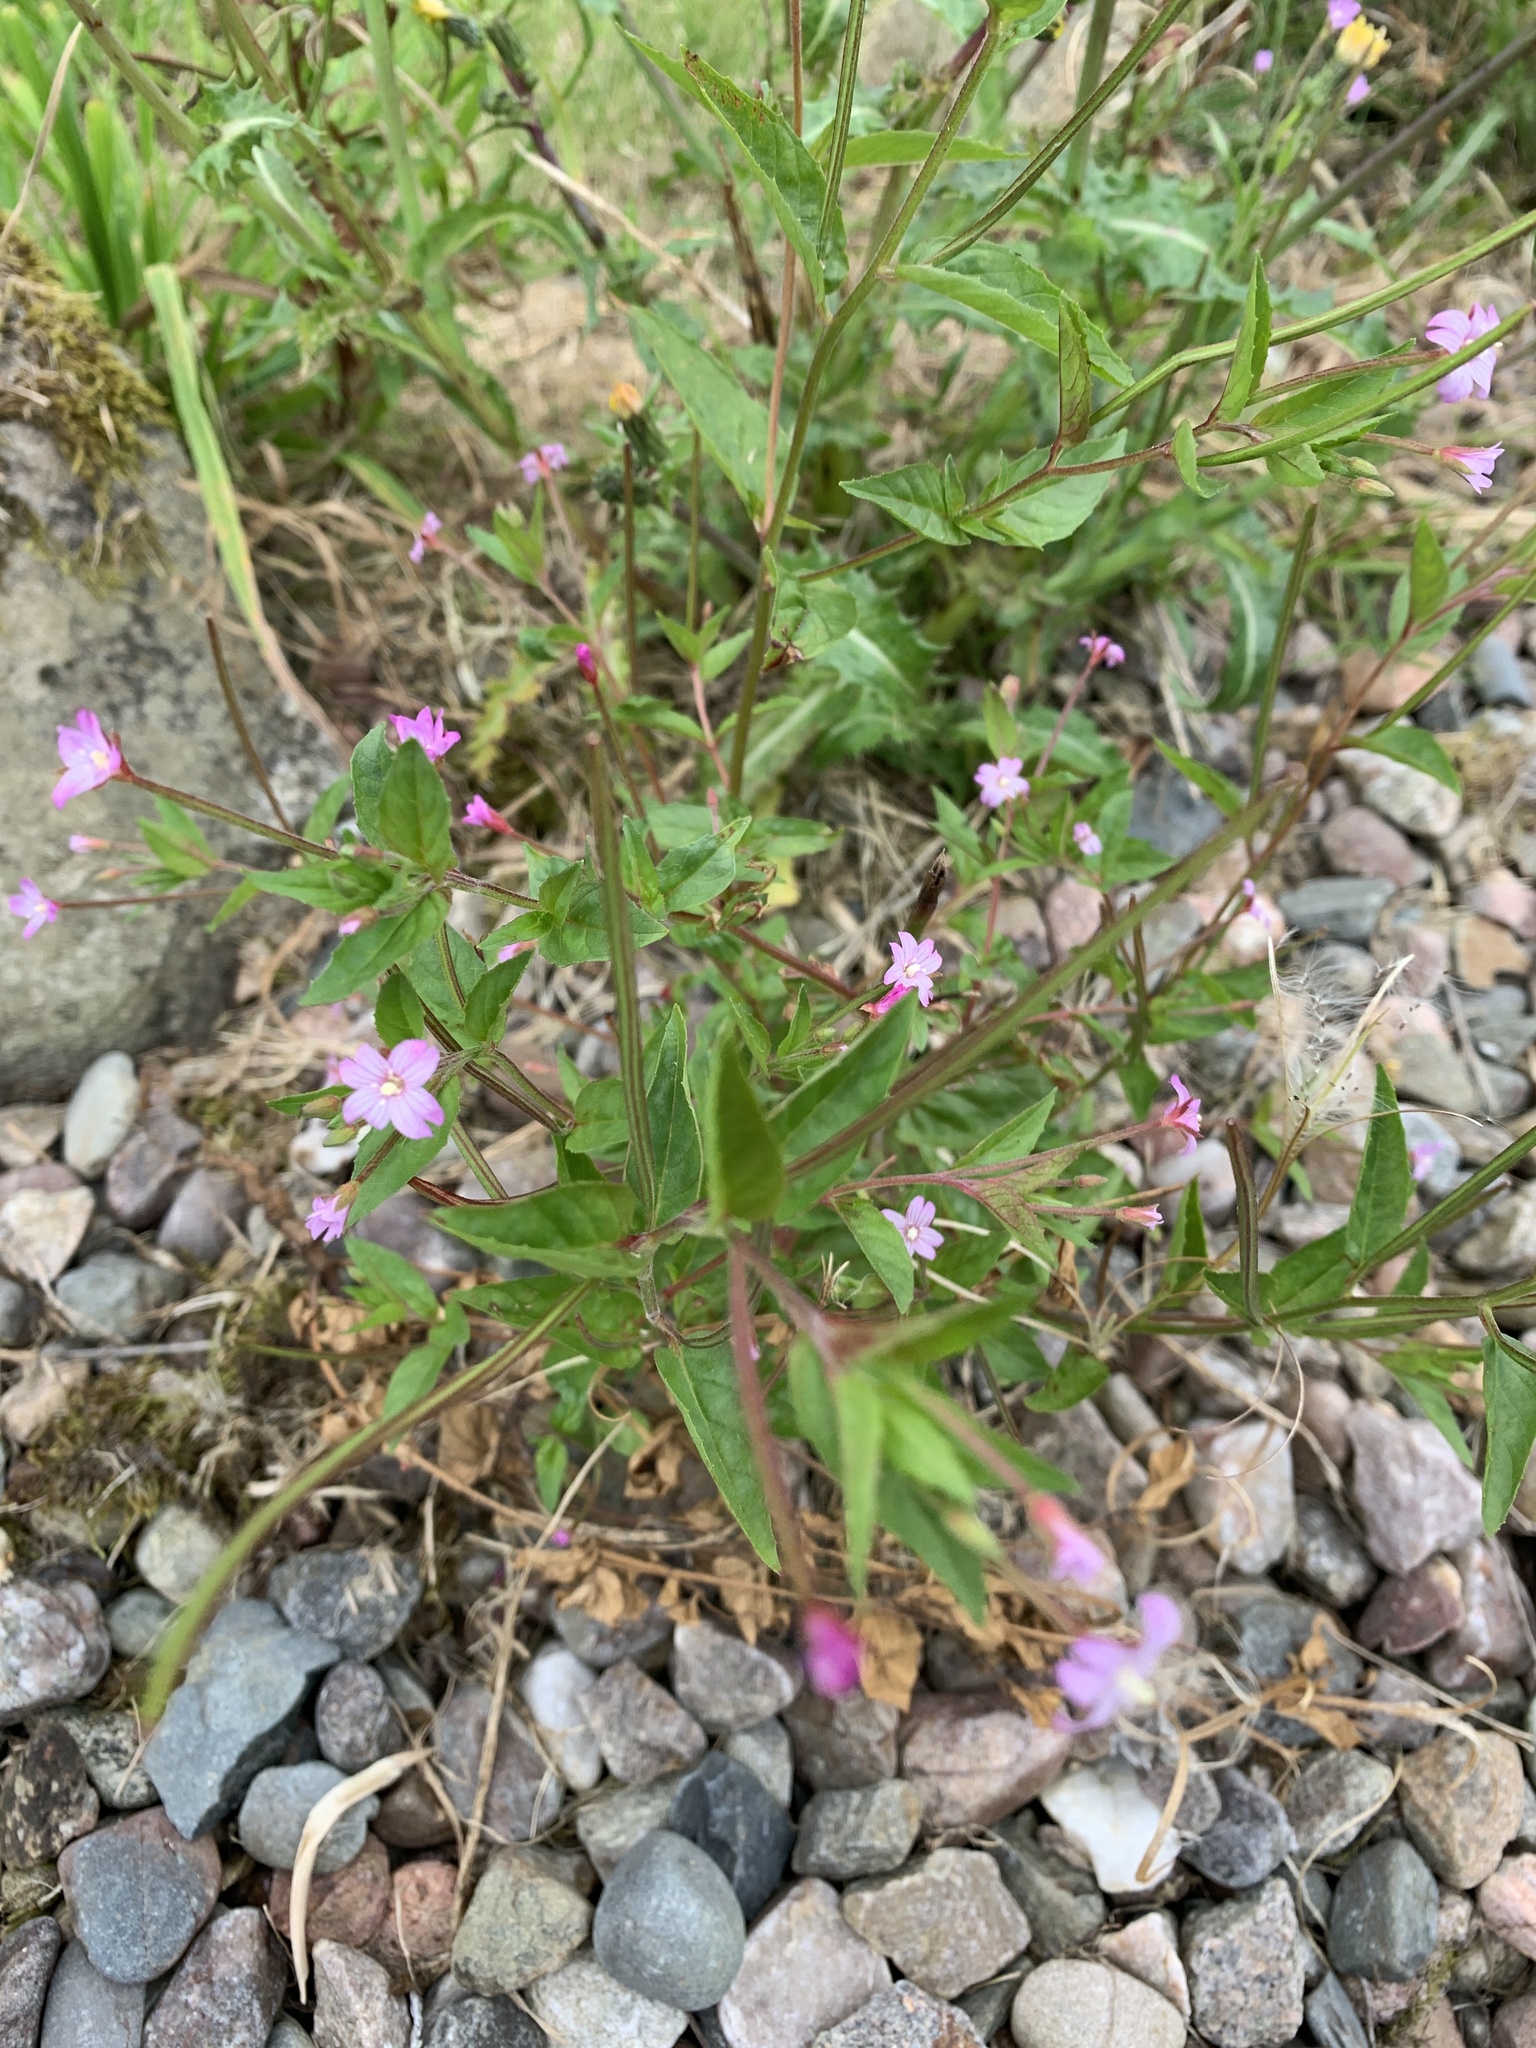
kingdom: Plantae
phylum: Tracheophyta
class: Magnoliopsida
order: Myrtales
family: Onagraceae
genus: Epilobium
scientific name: Epilobium montanum
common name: Broad-leaved willowherb
